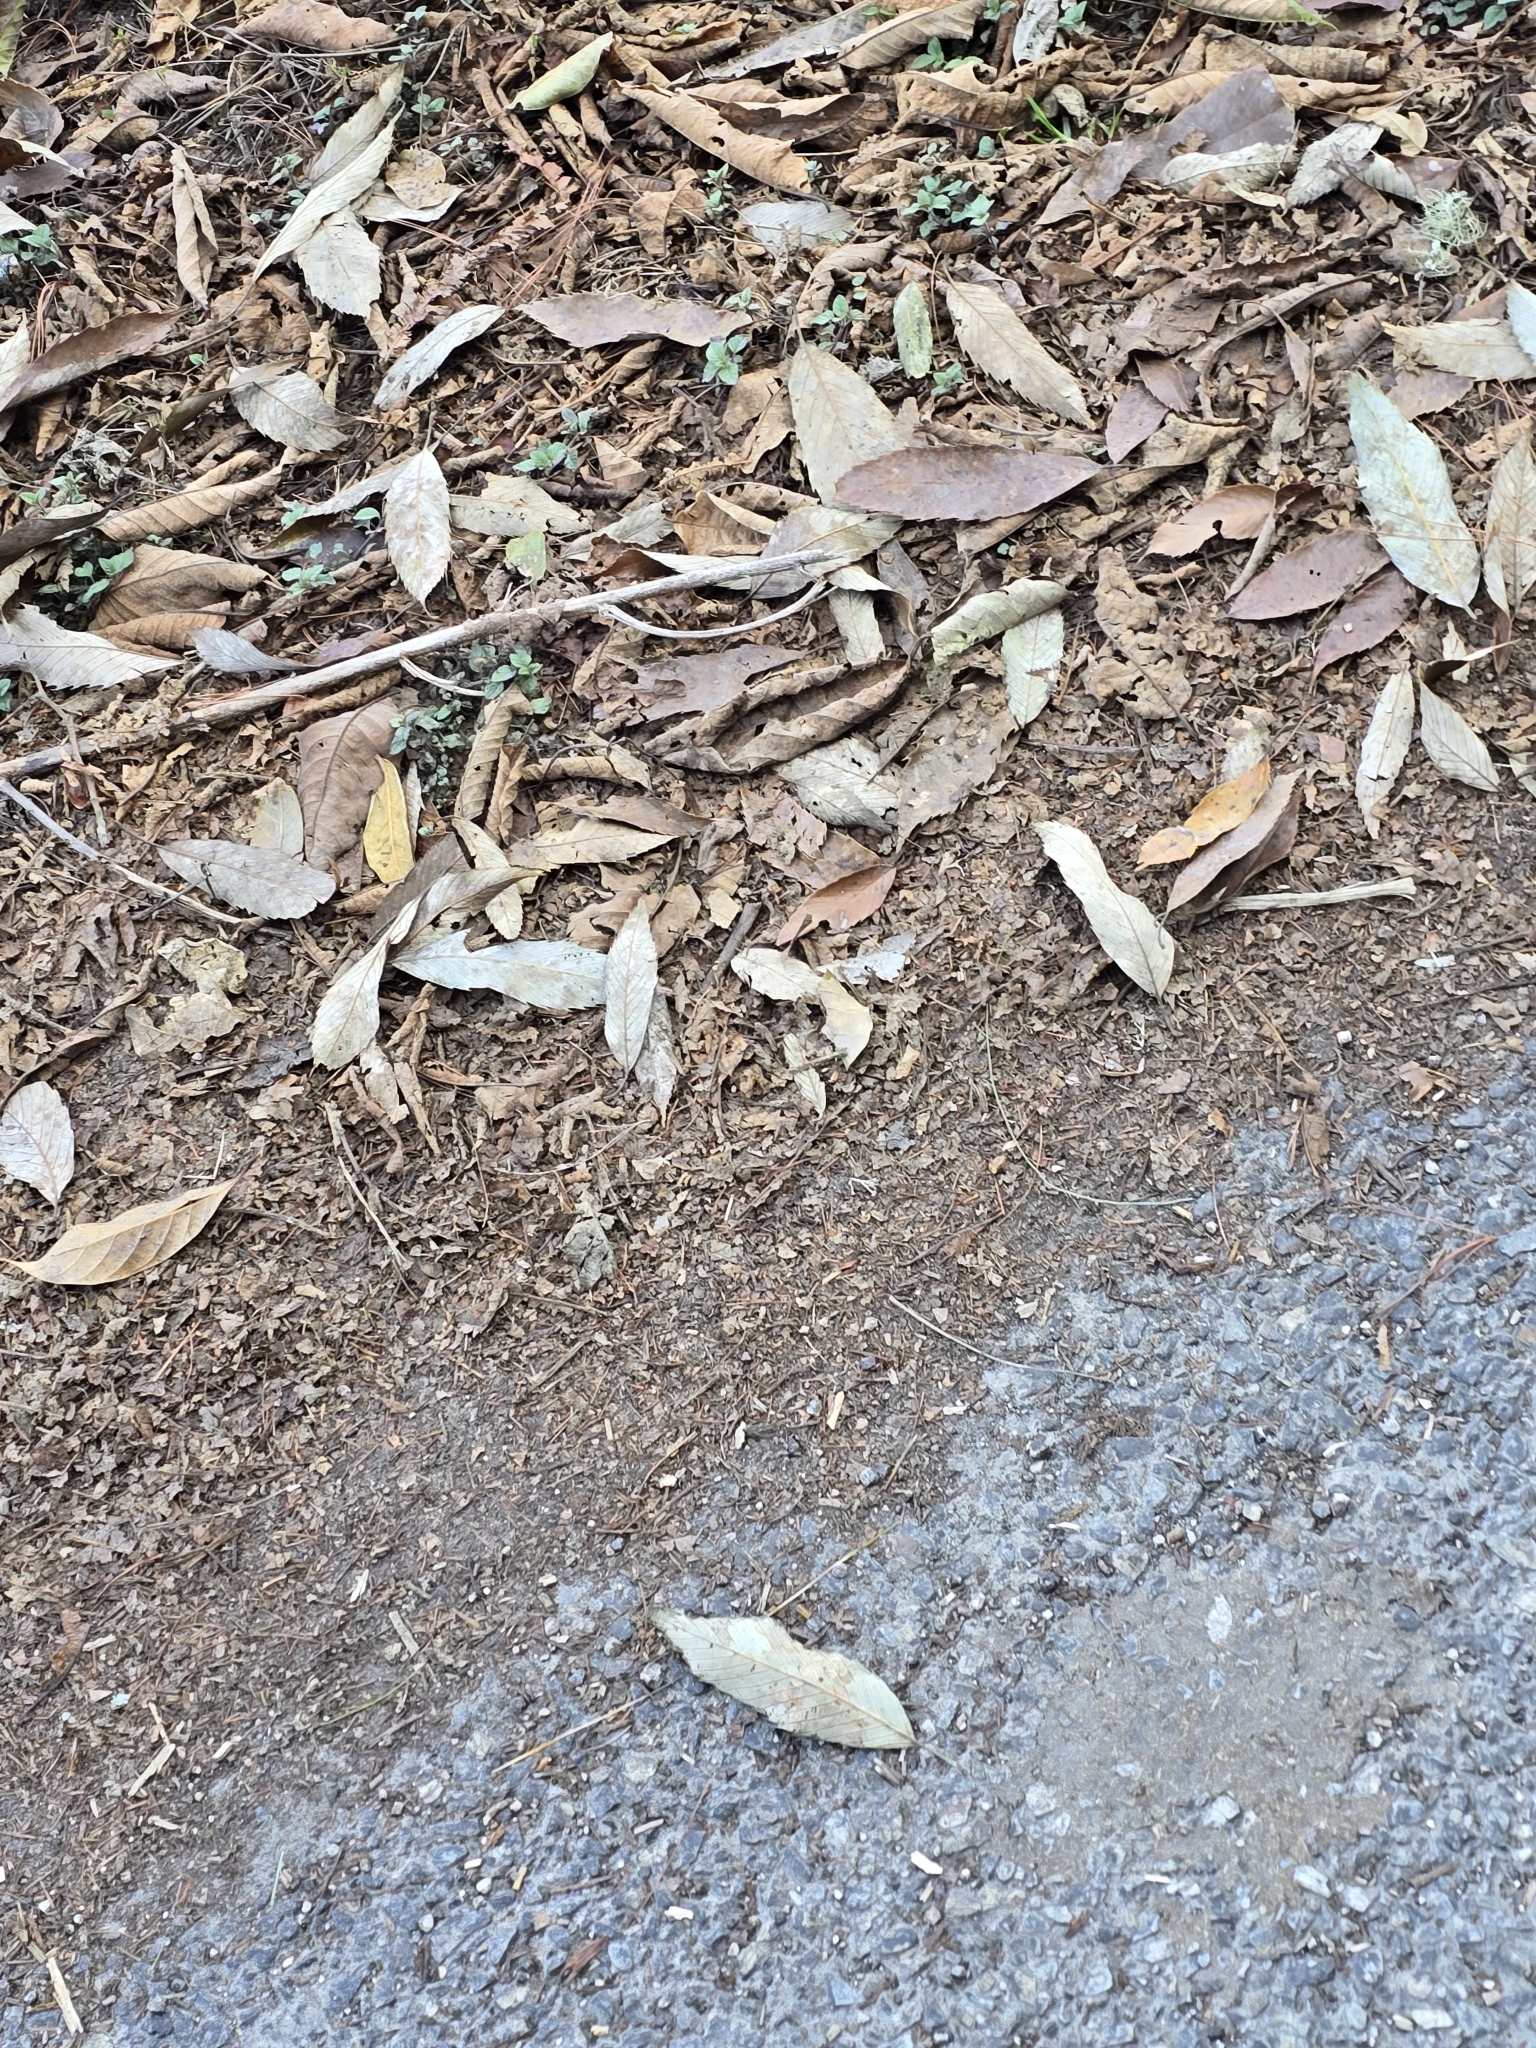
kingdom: Animalia
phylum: Chordata
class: Aves
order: Passeriformes
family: Leiothrichidae
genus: Minla
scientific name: Minla strigula
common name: Chestnut-tailed minla
